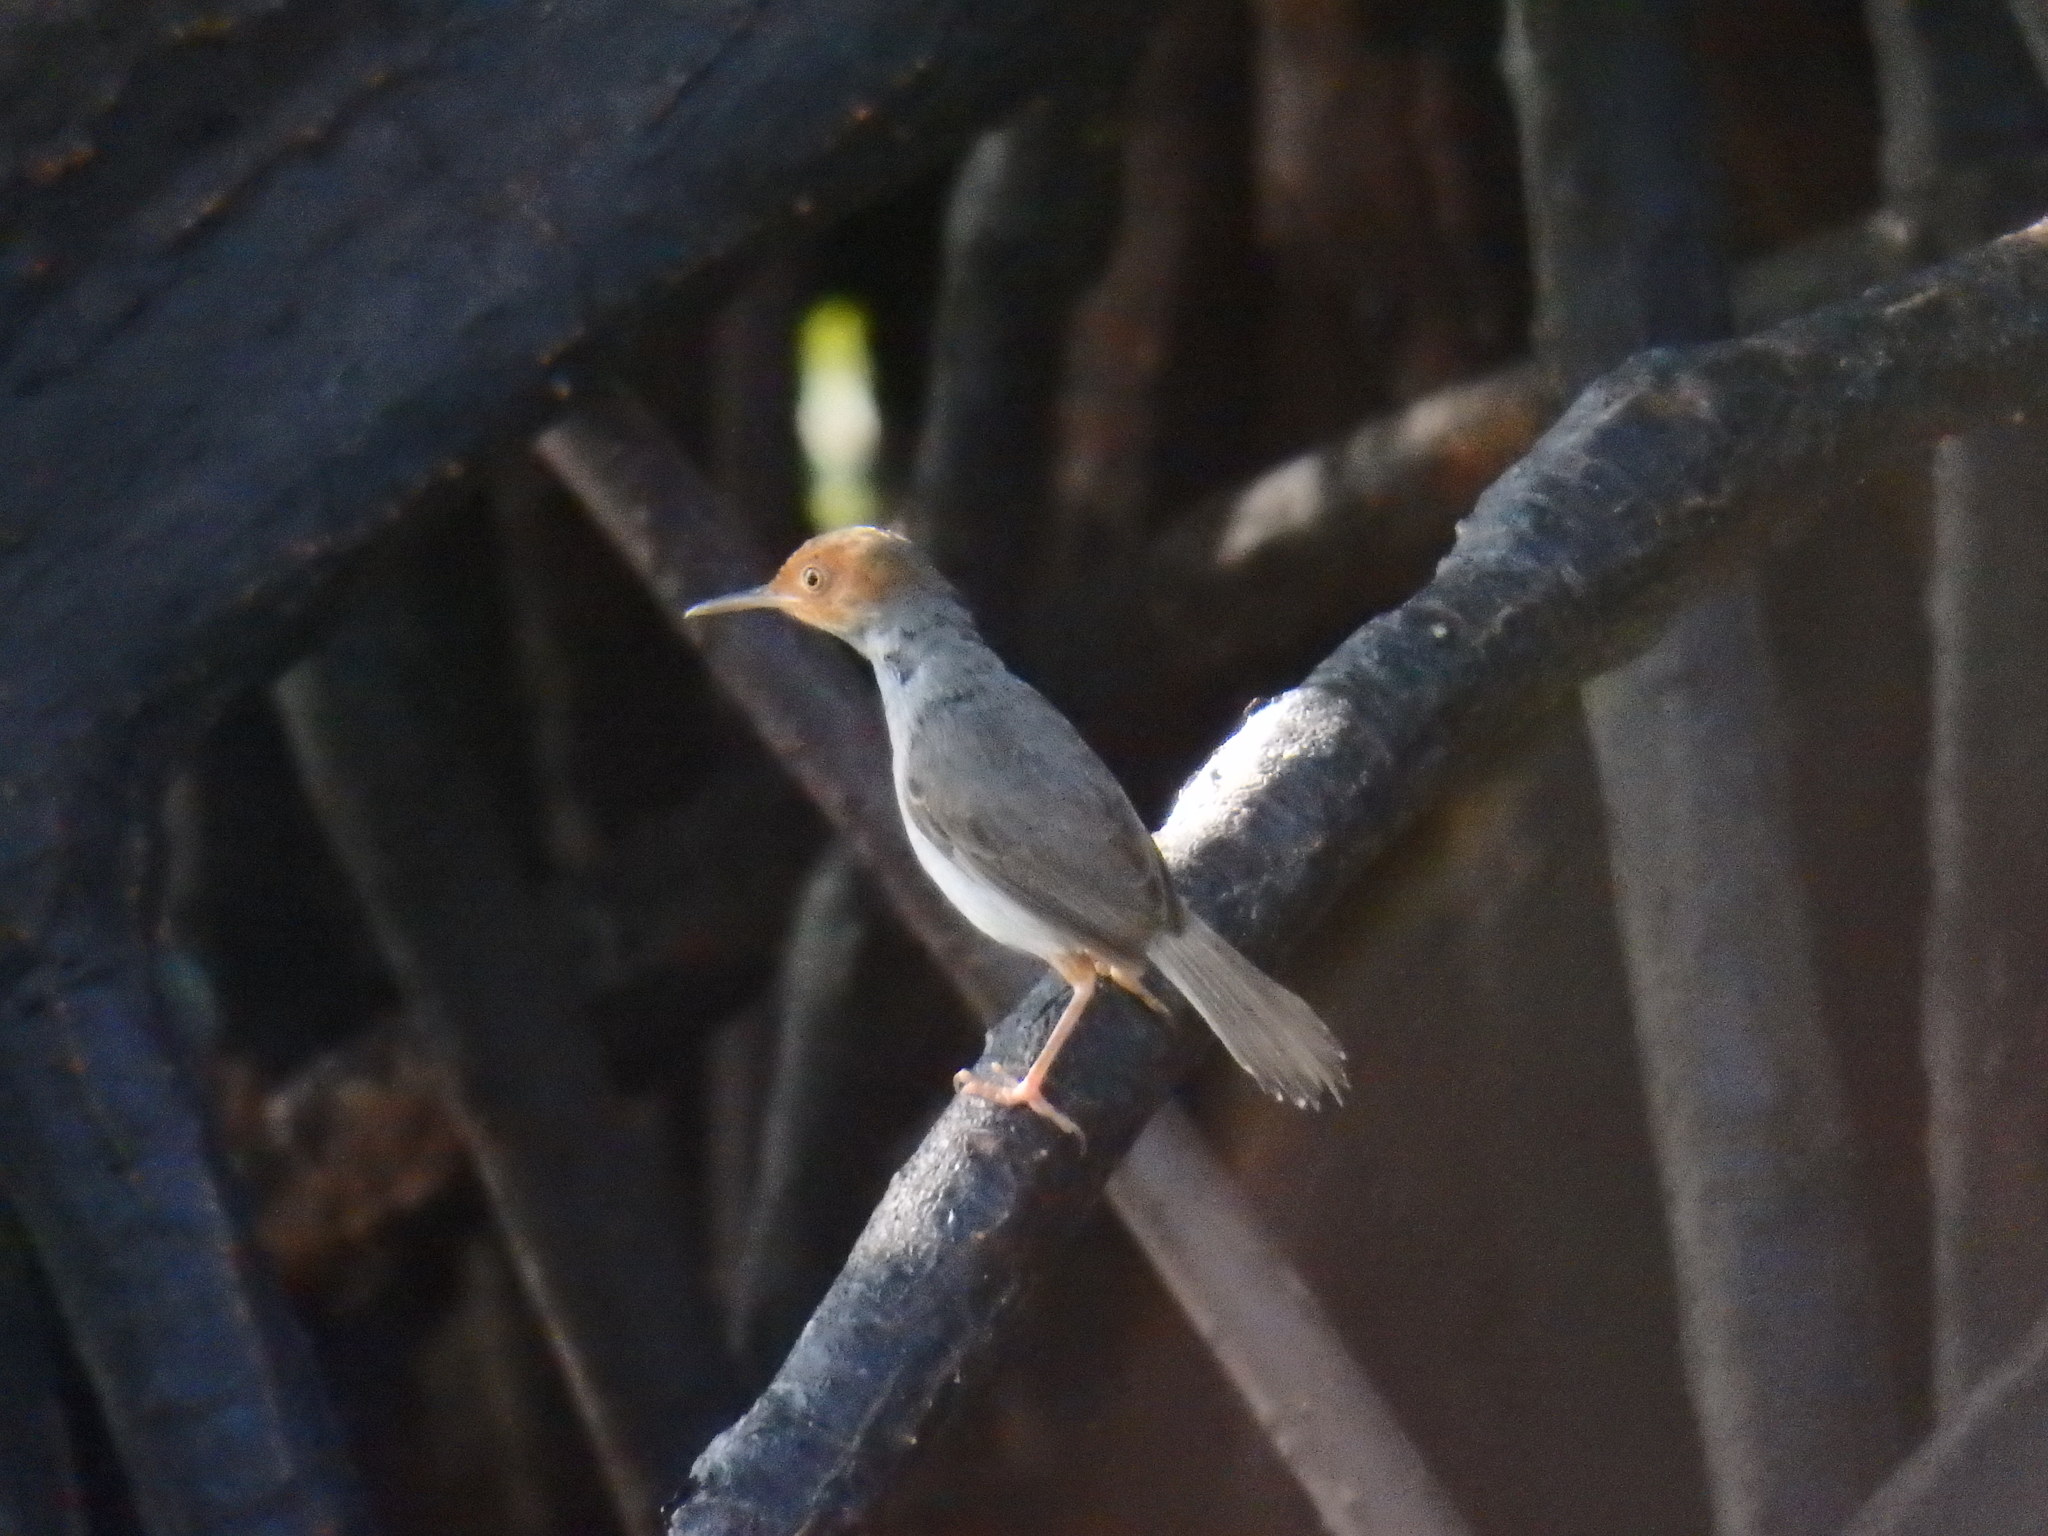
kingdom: Animalia
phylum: Chordata
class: Aves
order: Passeriformes
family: Cisticolidae
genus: Orthotomus
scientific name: Orthotomus ruficeps
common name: Ashy tailorbird
